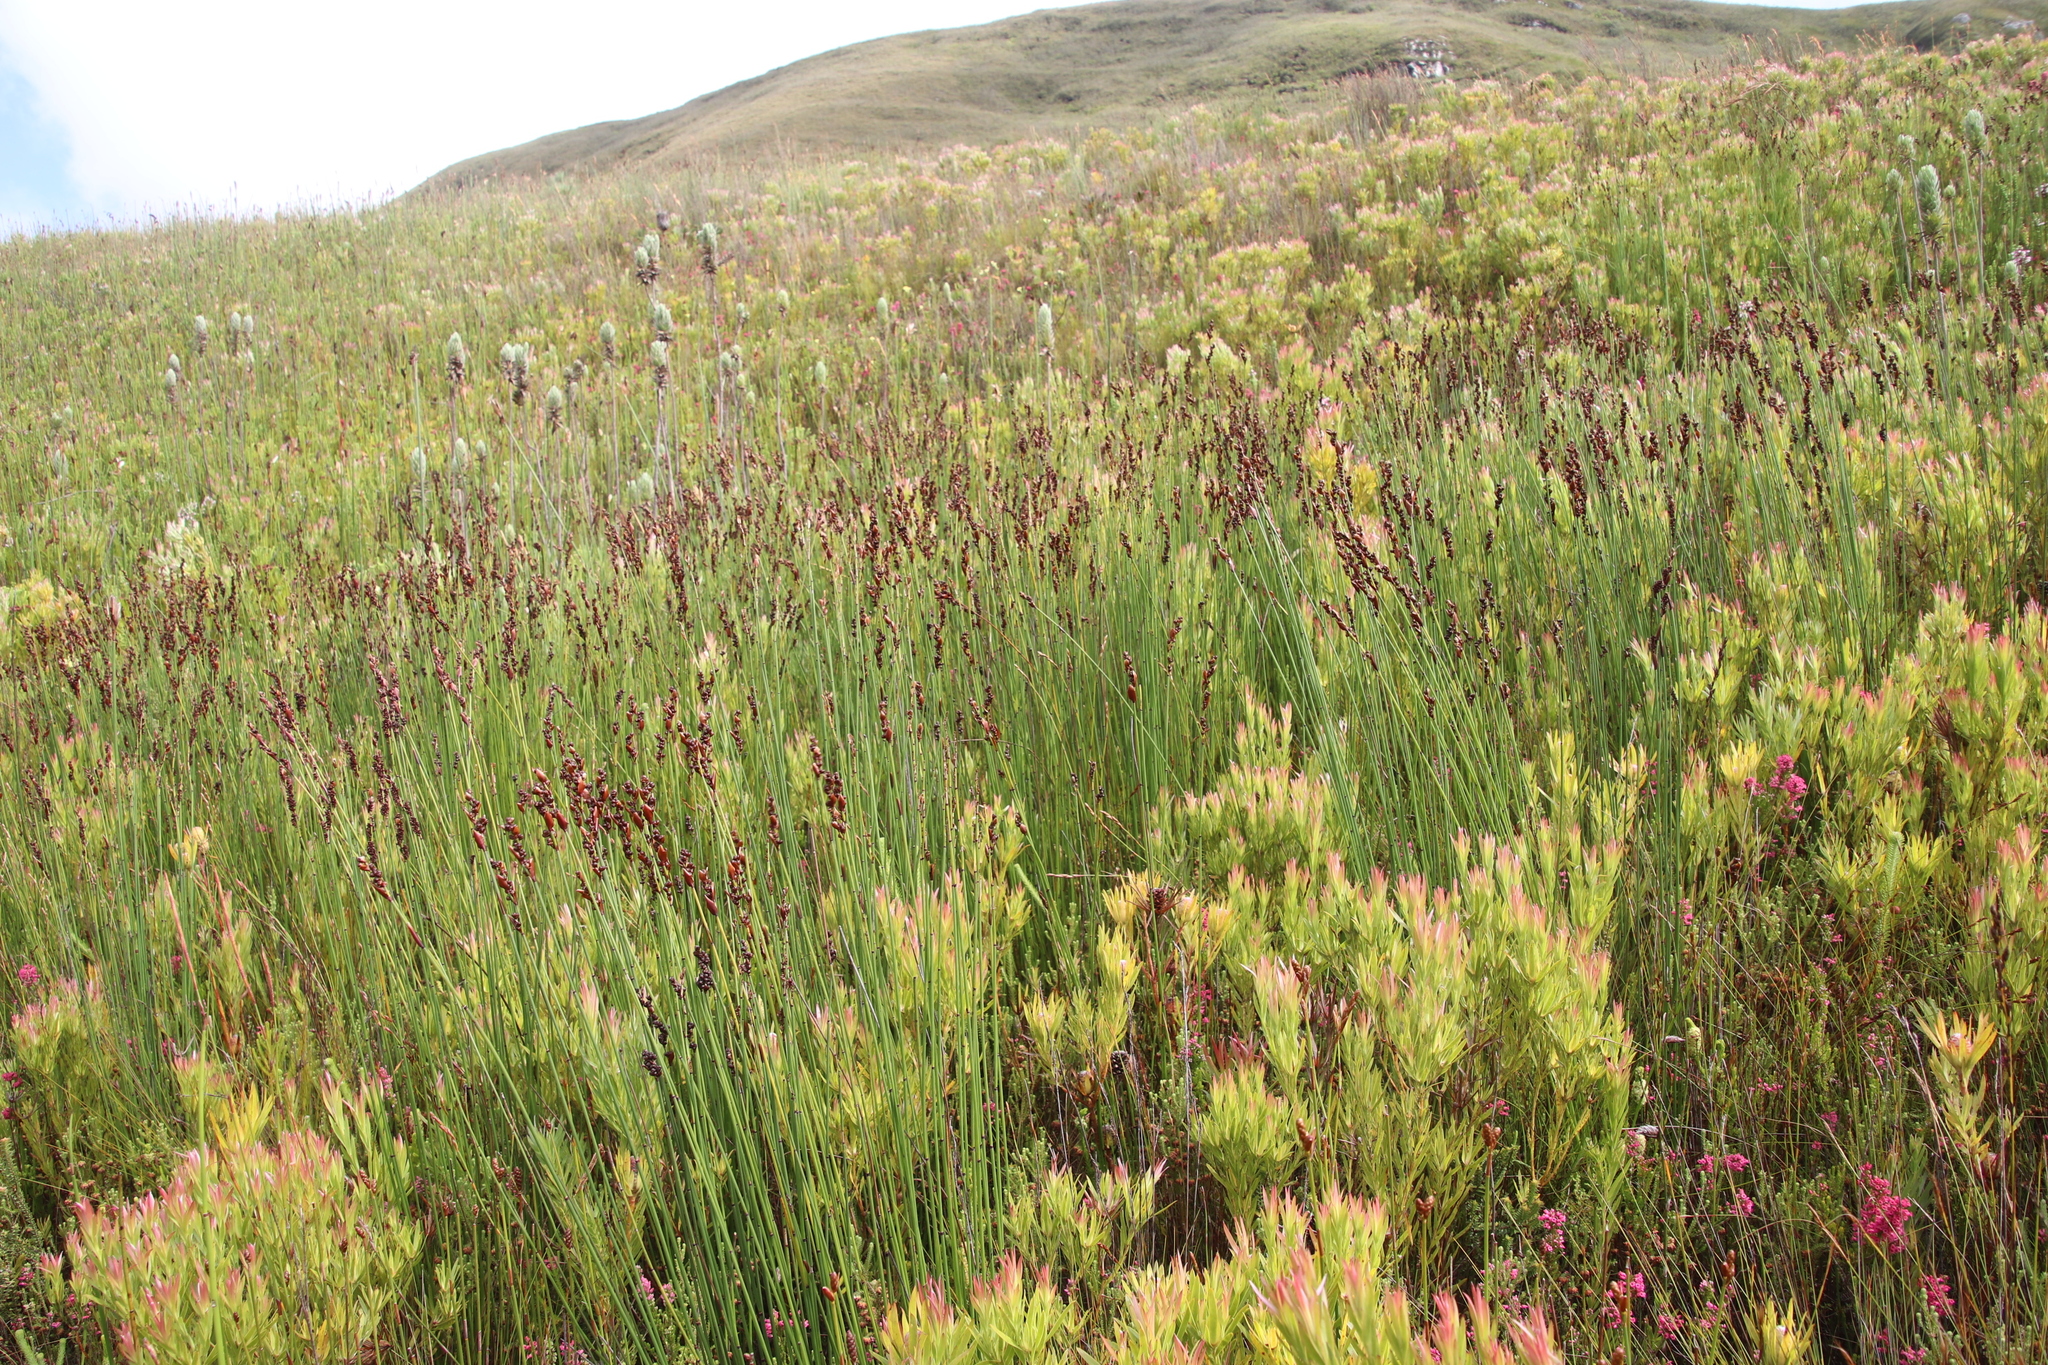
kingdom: Plantae
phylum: Tracheophyta
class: Liliopsida
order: Poales
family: Restionaceae
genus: Elegia
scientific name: Elegia hookeriana
